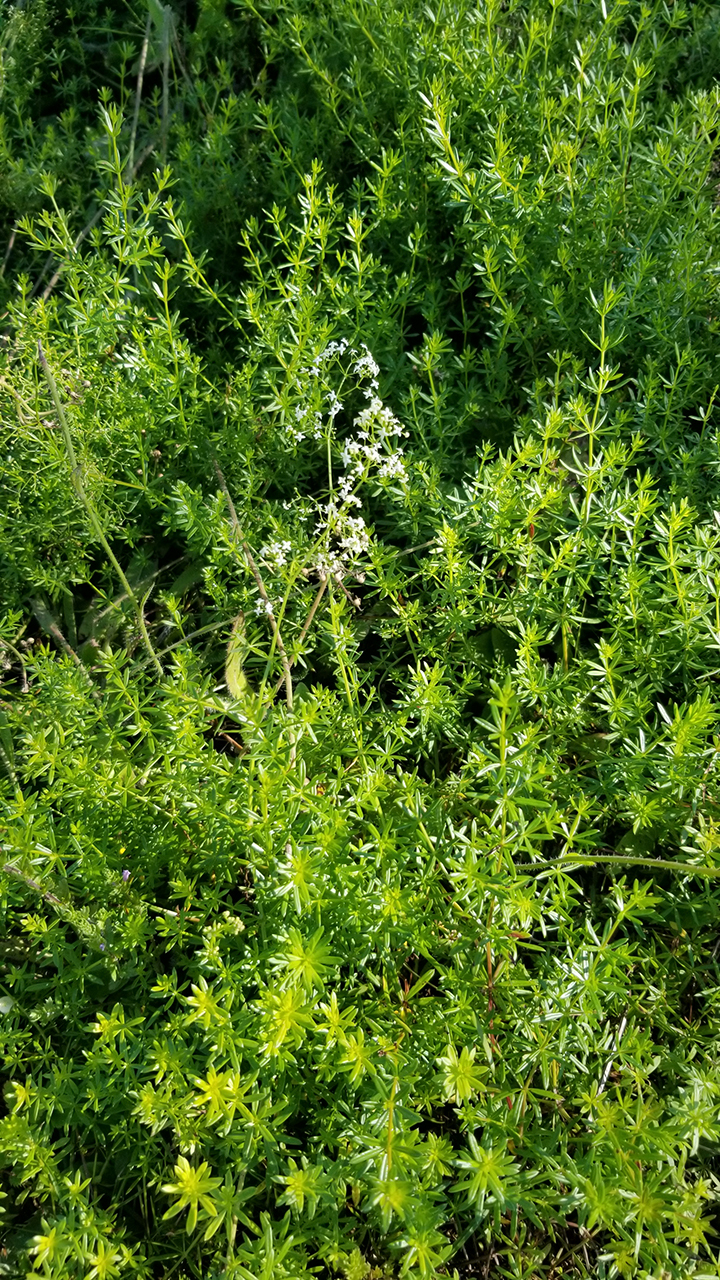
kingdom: Plantae
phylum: Tracheophyta
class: Magnoliopsida
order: Gentianales
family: Rubiaceae
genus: Galium
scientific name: Galium mollugo
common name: Hedge bedstraw
